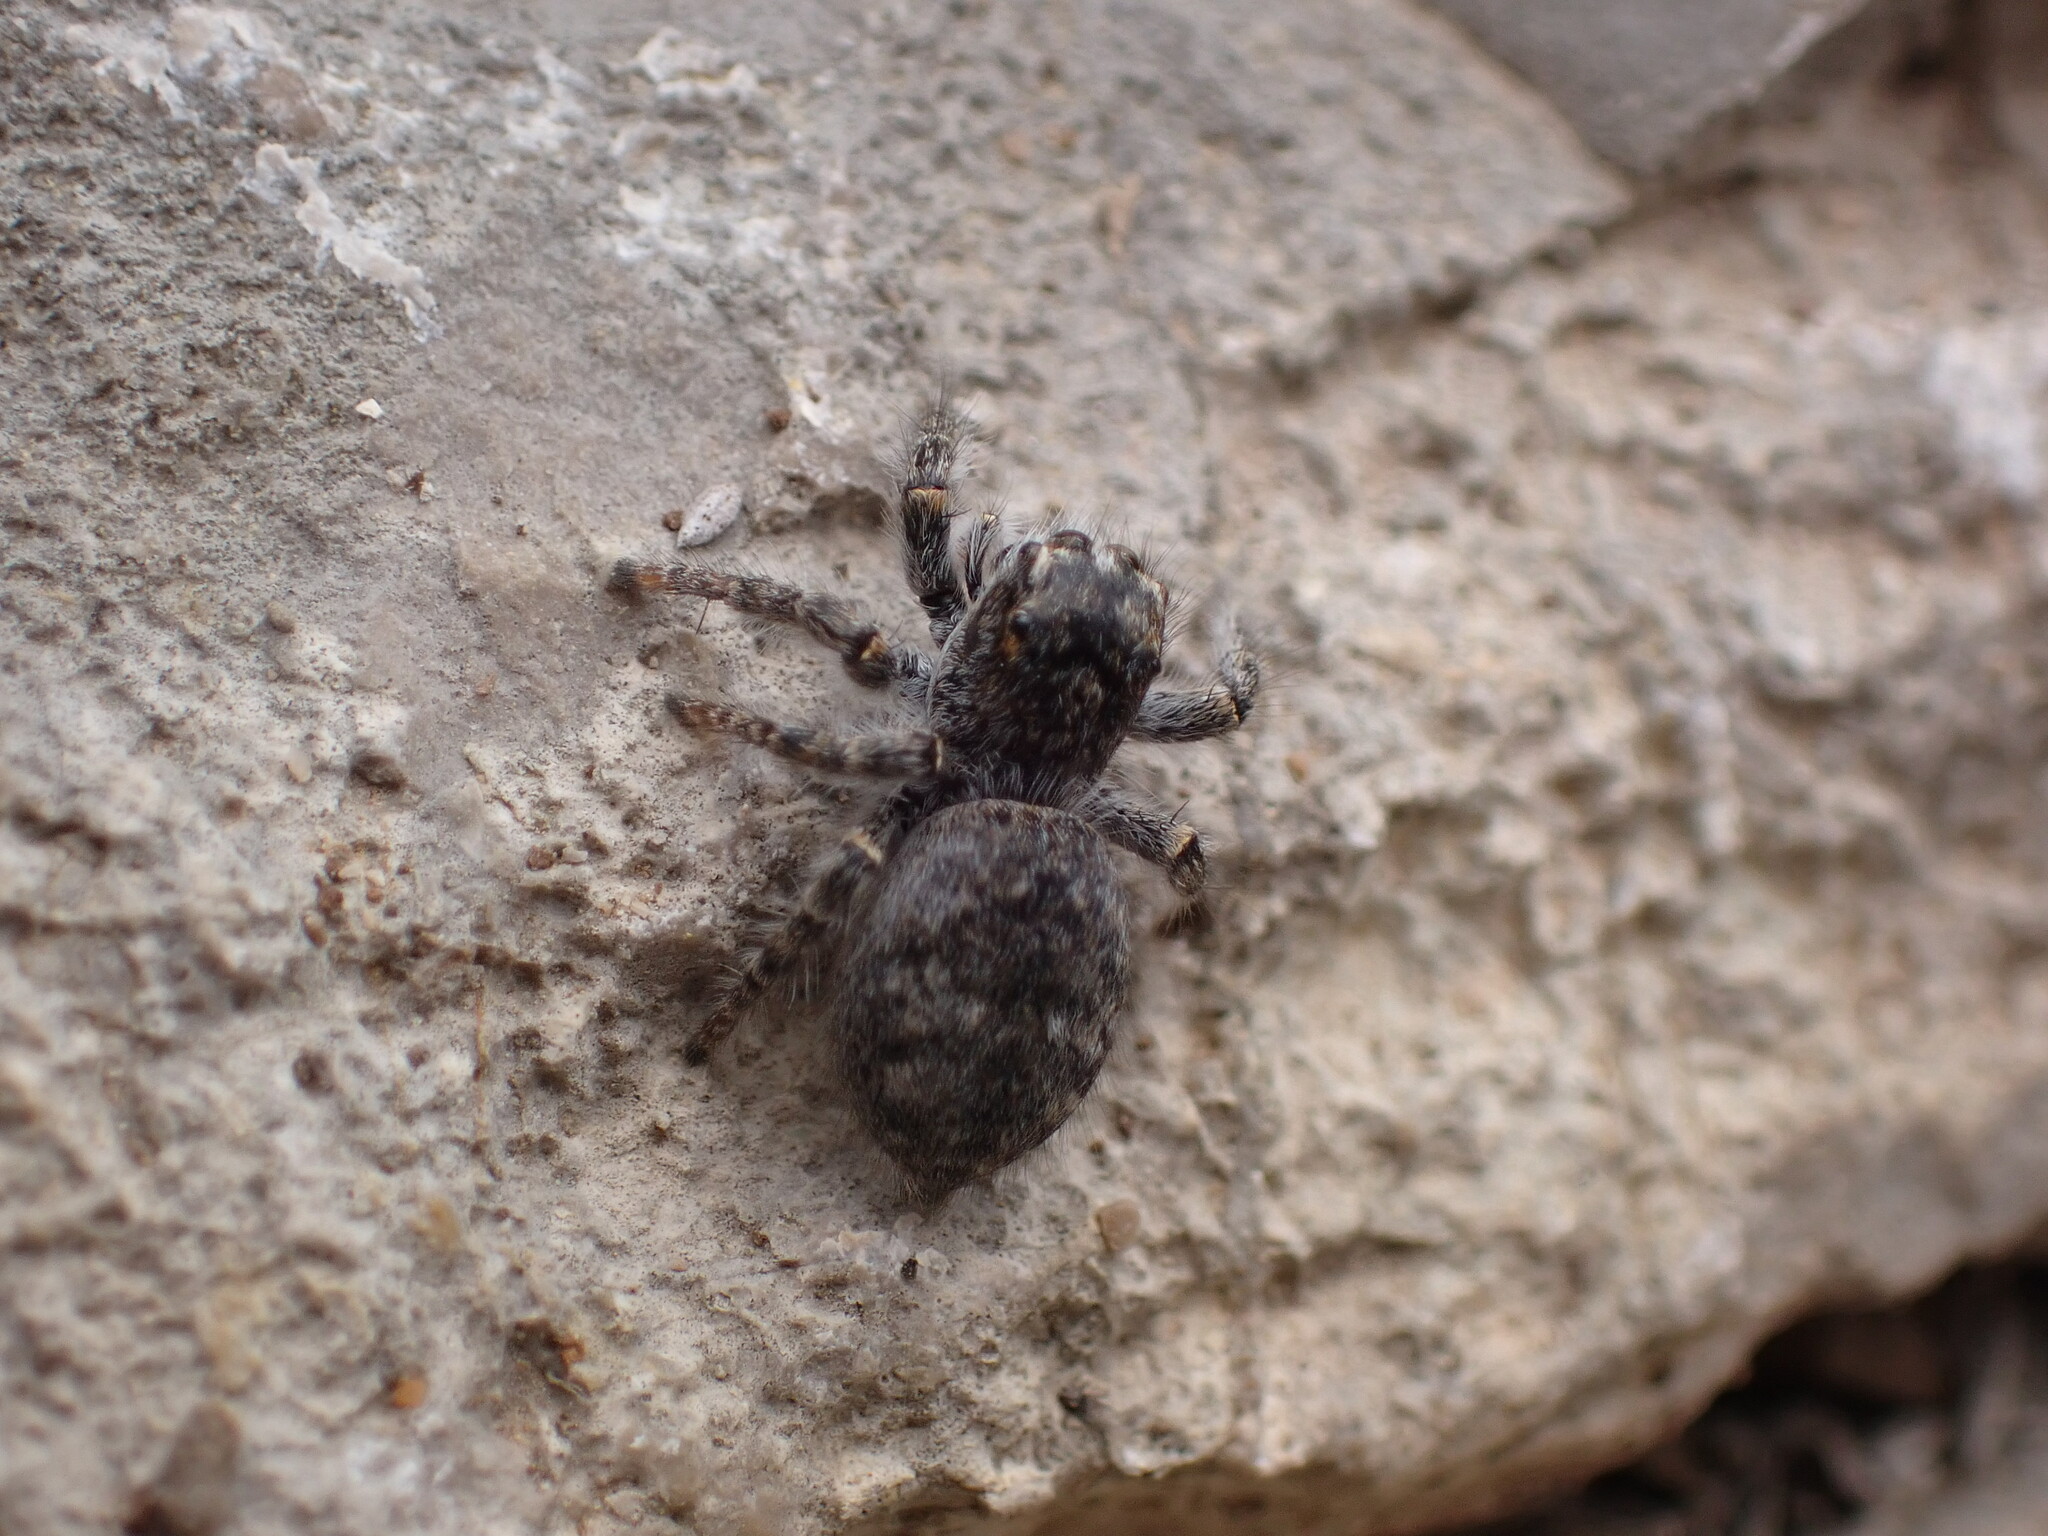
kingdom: Animalia
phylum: Arthropoda
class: Arachnida
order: Araneae
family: Salticidae
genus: Philaeus
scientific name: Philaeus chrysops
